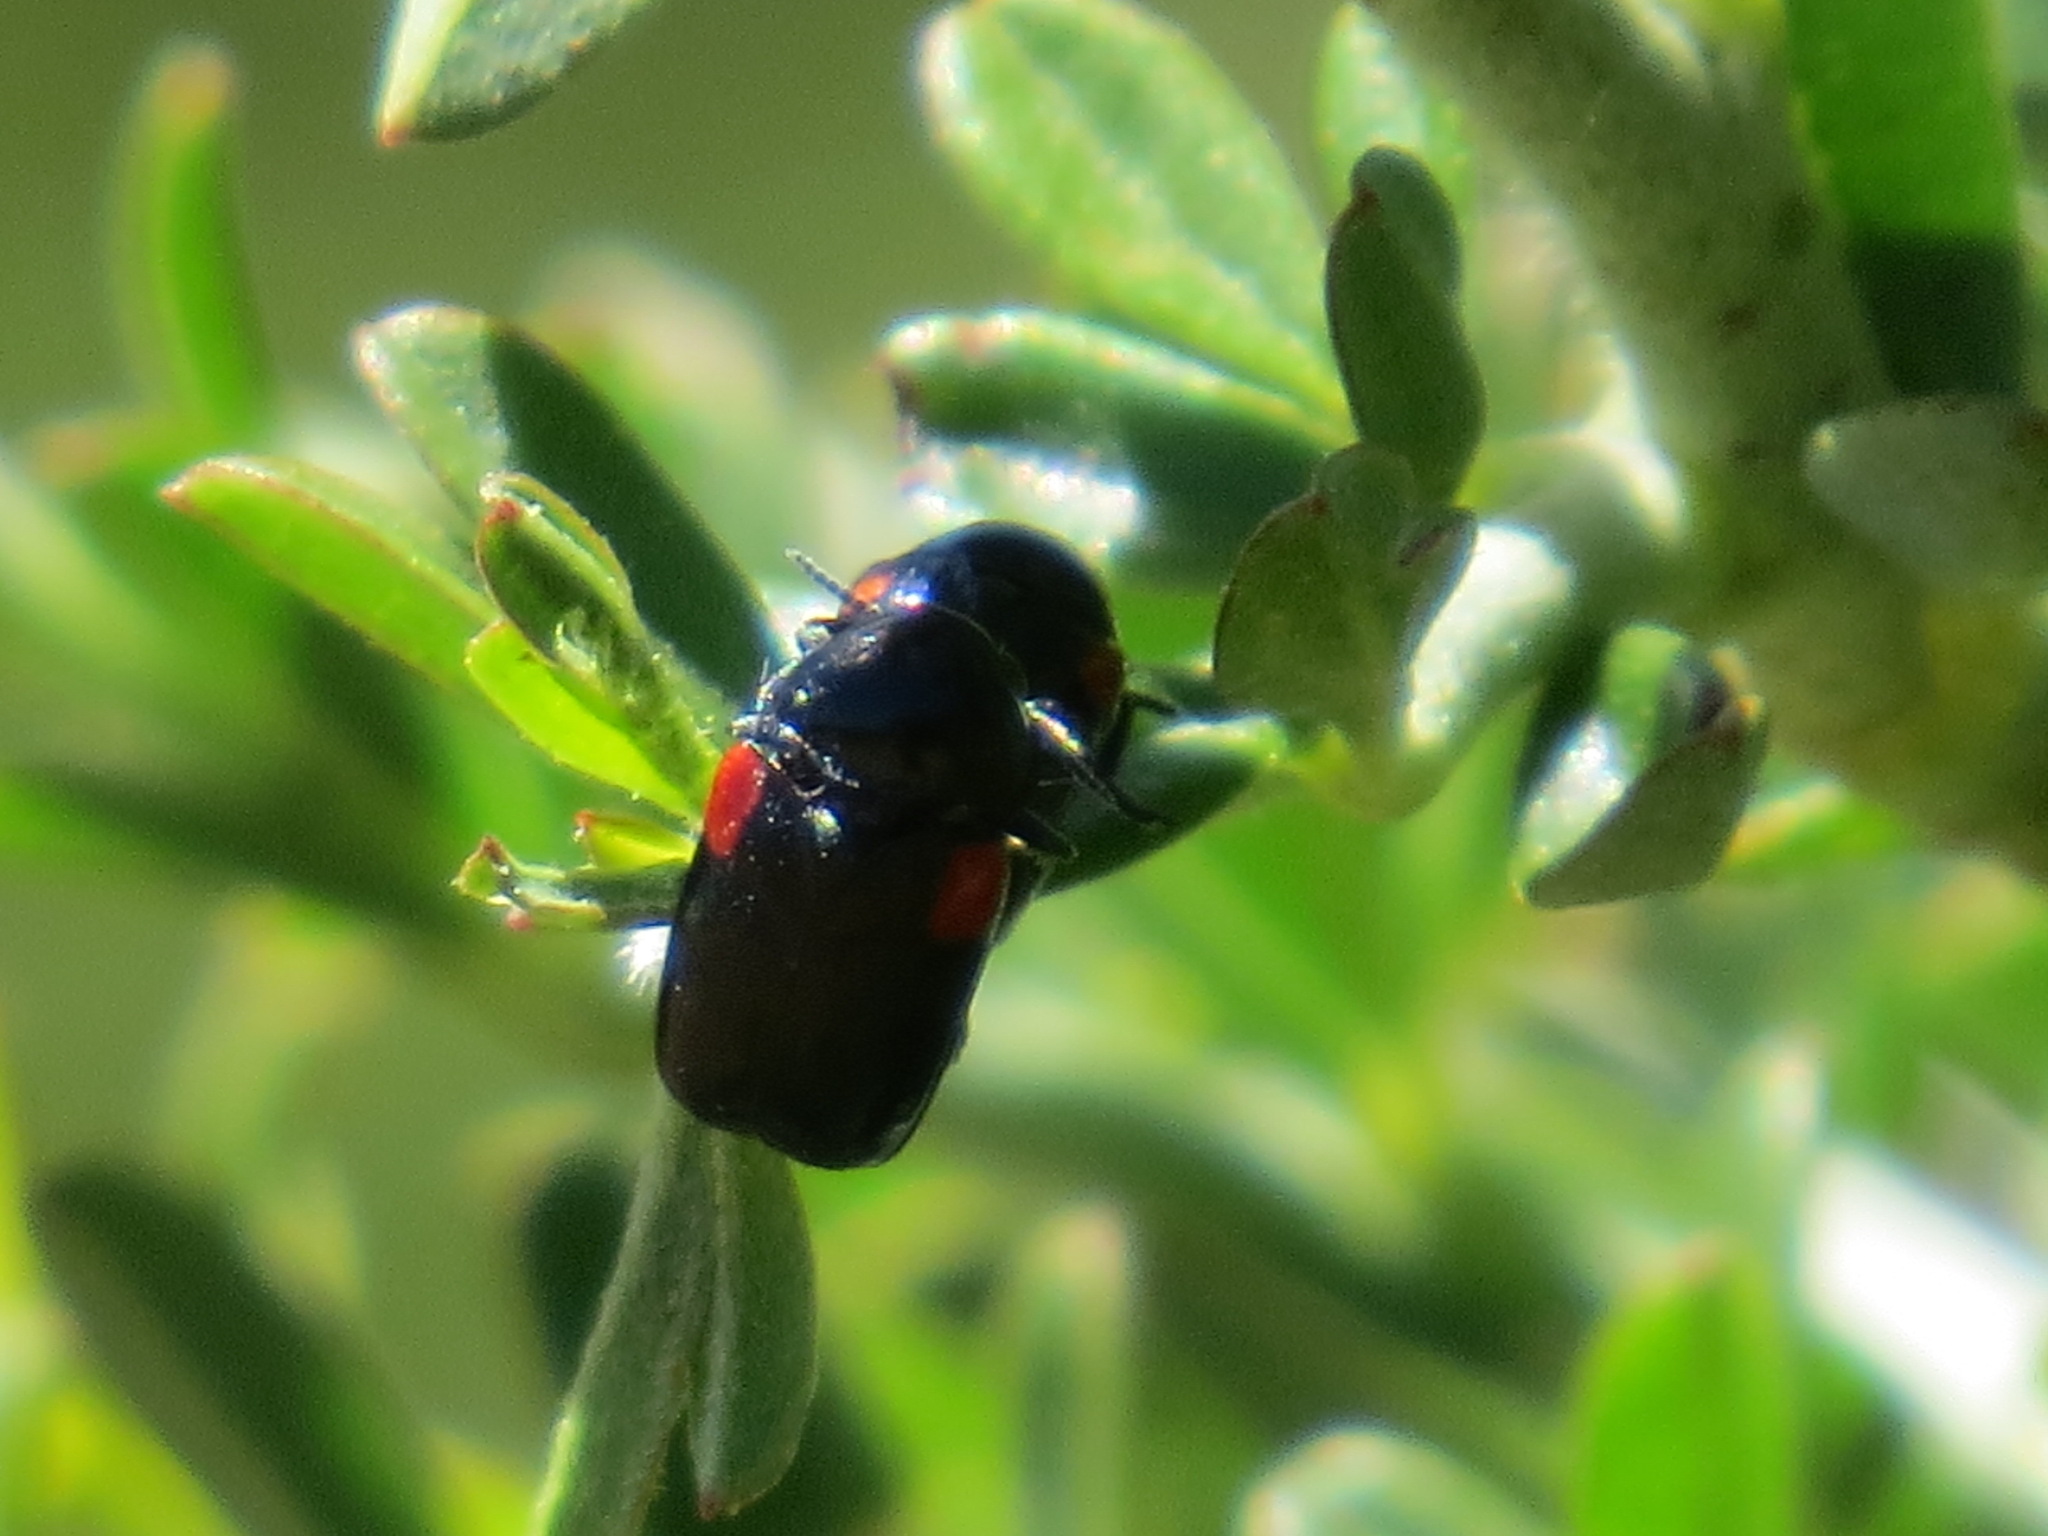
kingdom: Animalia
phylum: Arthropoda
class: Insecta
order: Coleoptera
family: Chrysomelidae
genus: Saxinis
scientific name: Saxinis saucia
